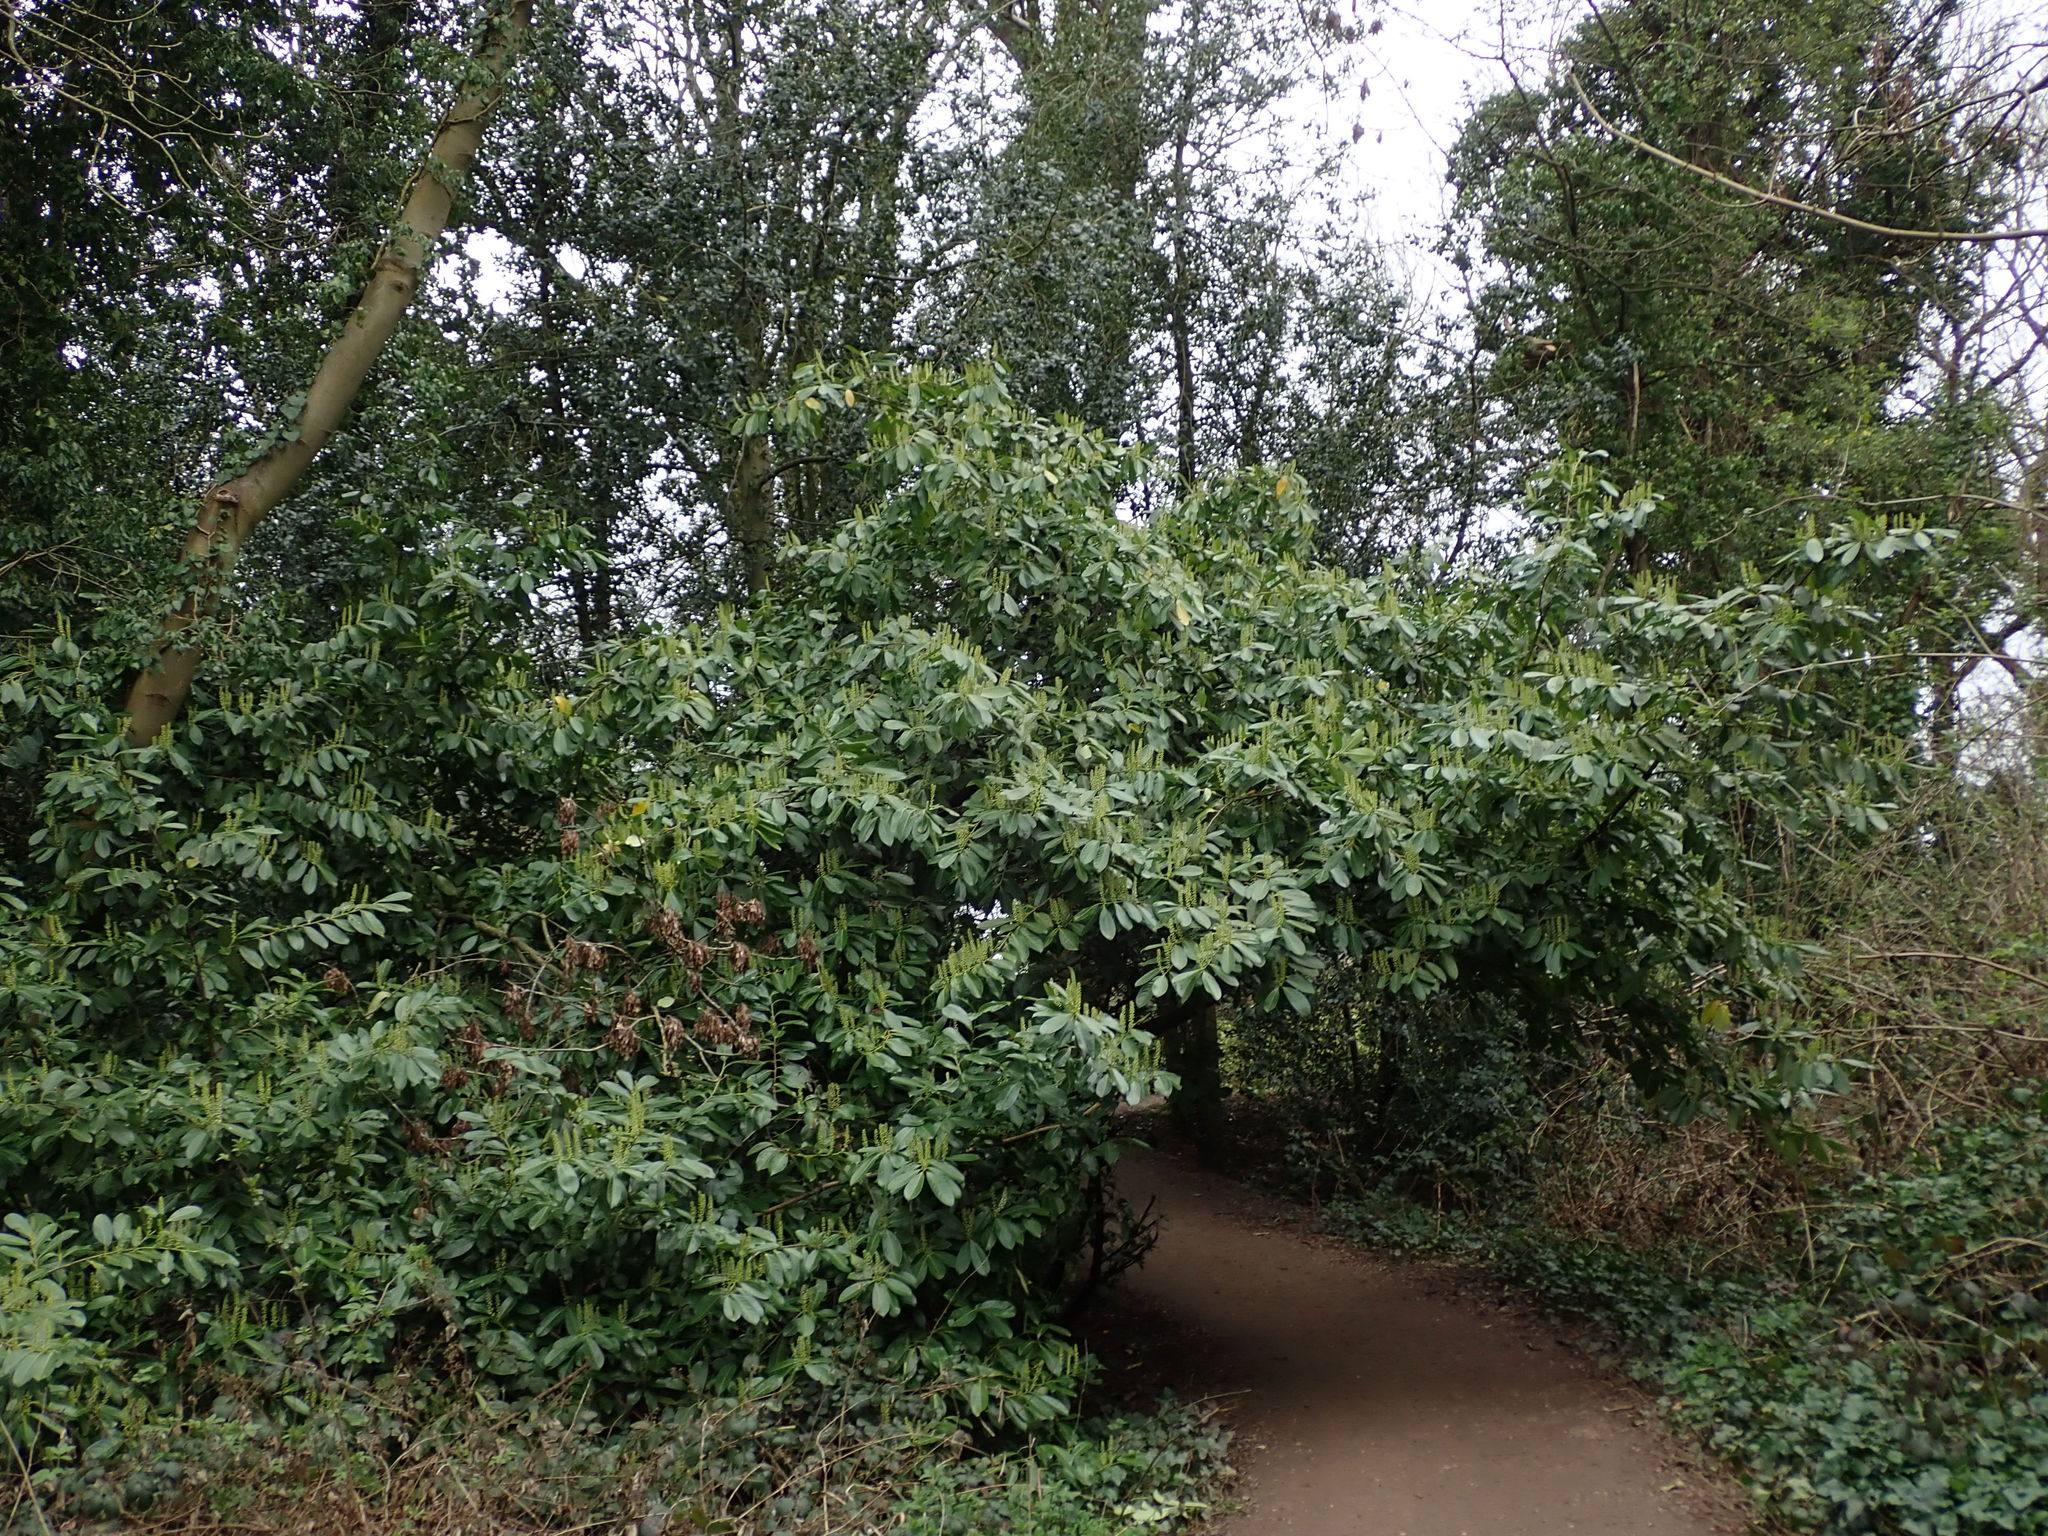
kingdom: Plantae
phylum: Tracheophyta
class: Magnoliopsida
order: Rosales
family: Rosaceae
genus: Prunus
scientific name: Prunus laurocerasus
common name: Cherry laurel
